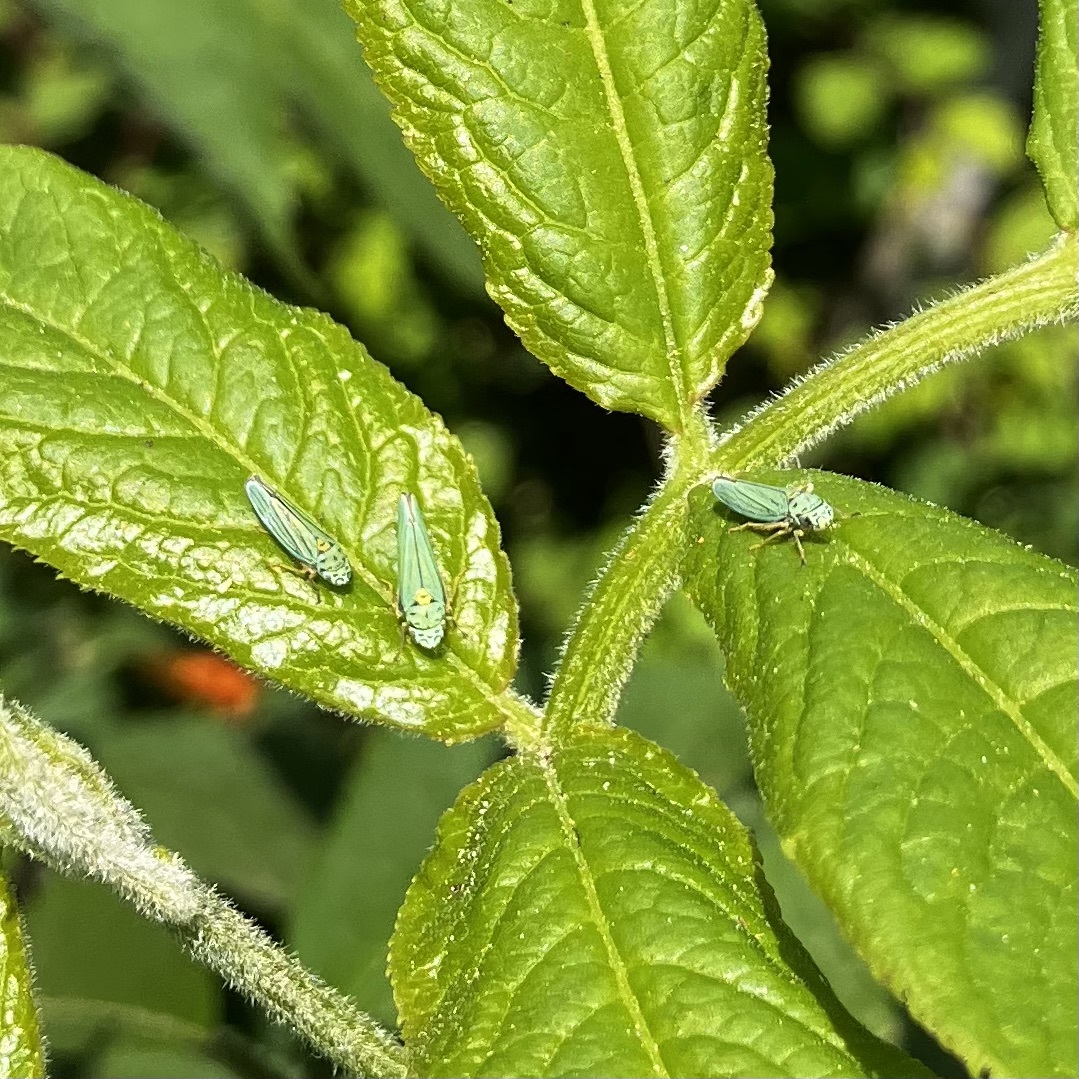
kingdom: Animalia
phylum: Arthropoda
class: Insecta
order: Hemiptera
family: Cicadellidae
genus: Graphocephala
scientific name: Graphocephala atropunctata
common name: Blue-green sharpshooter
